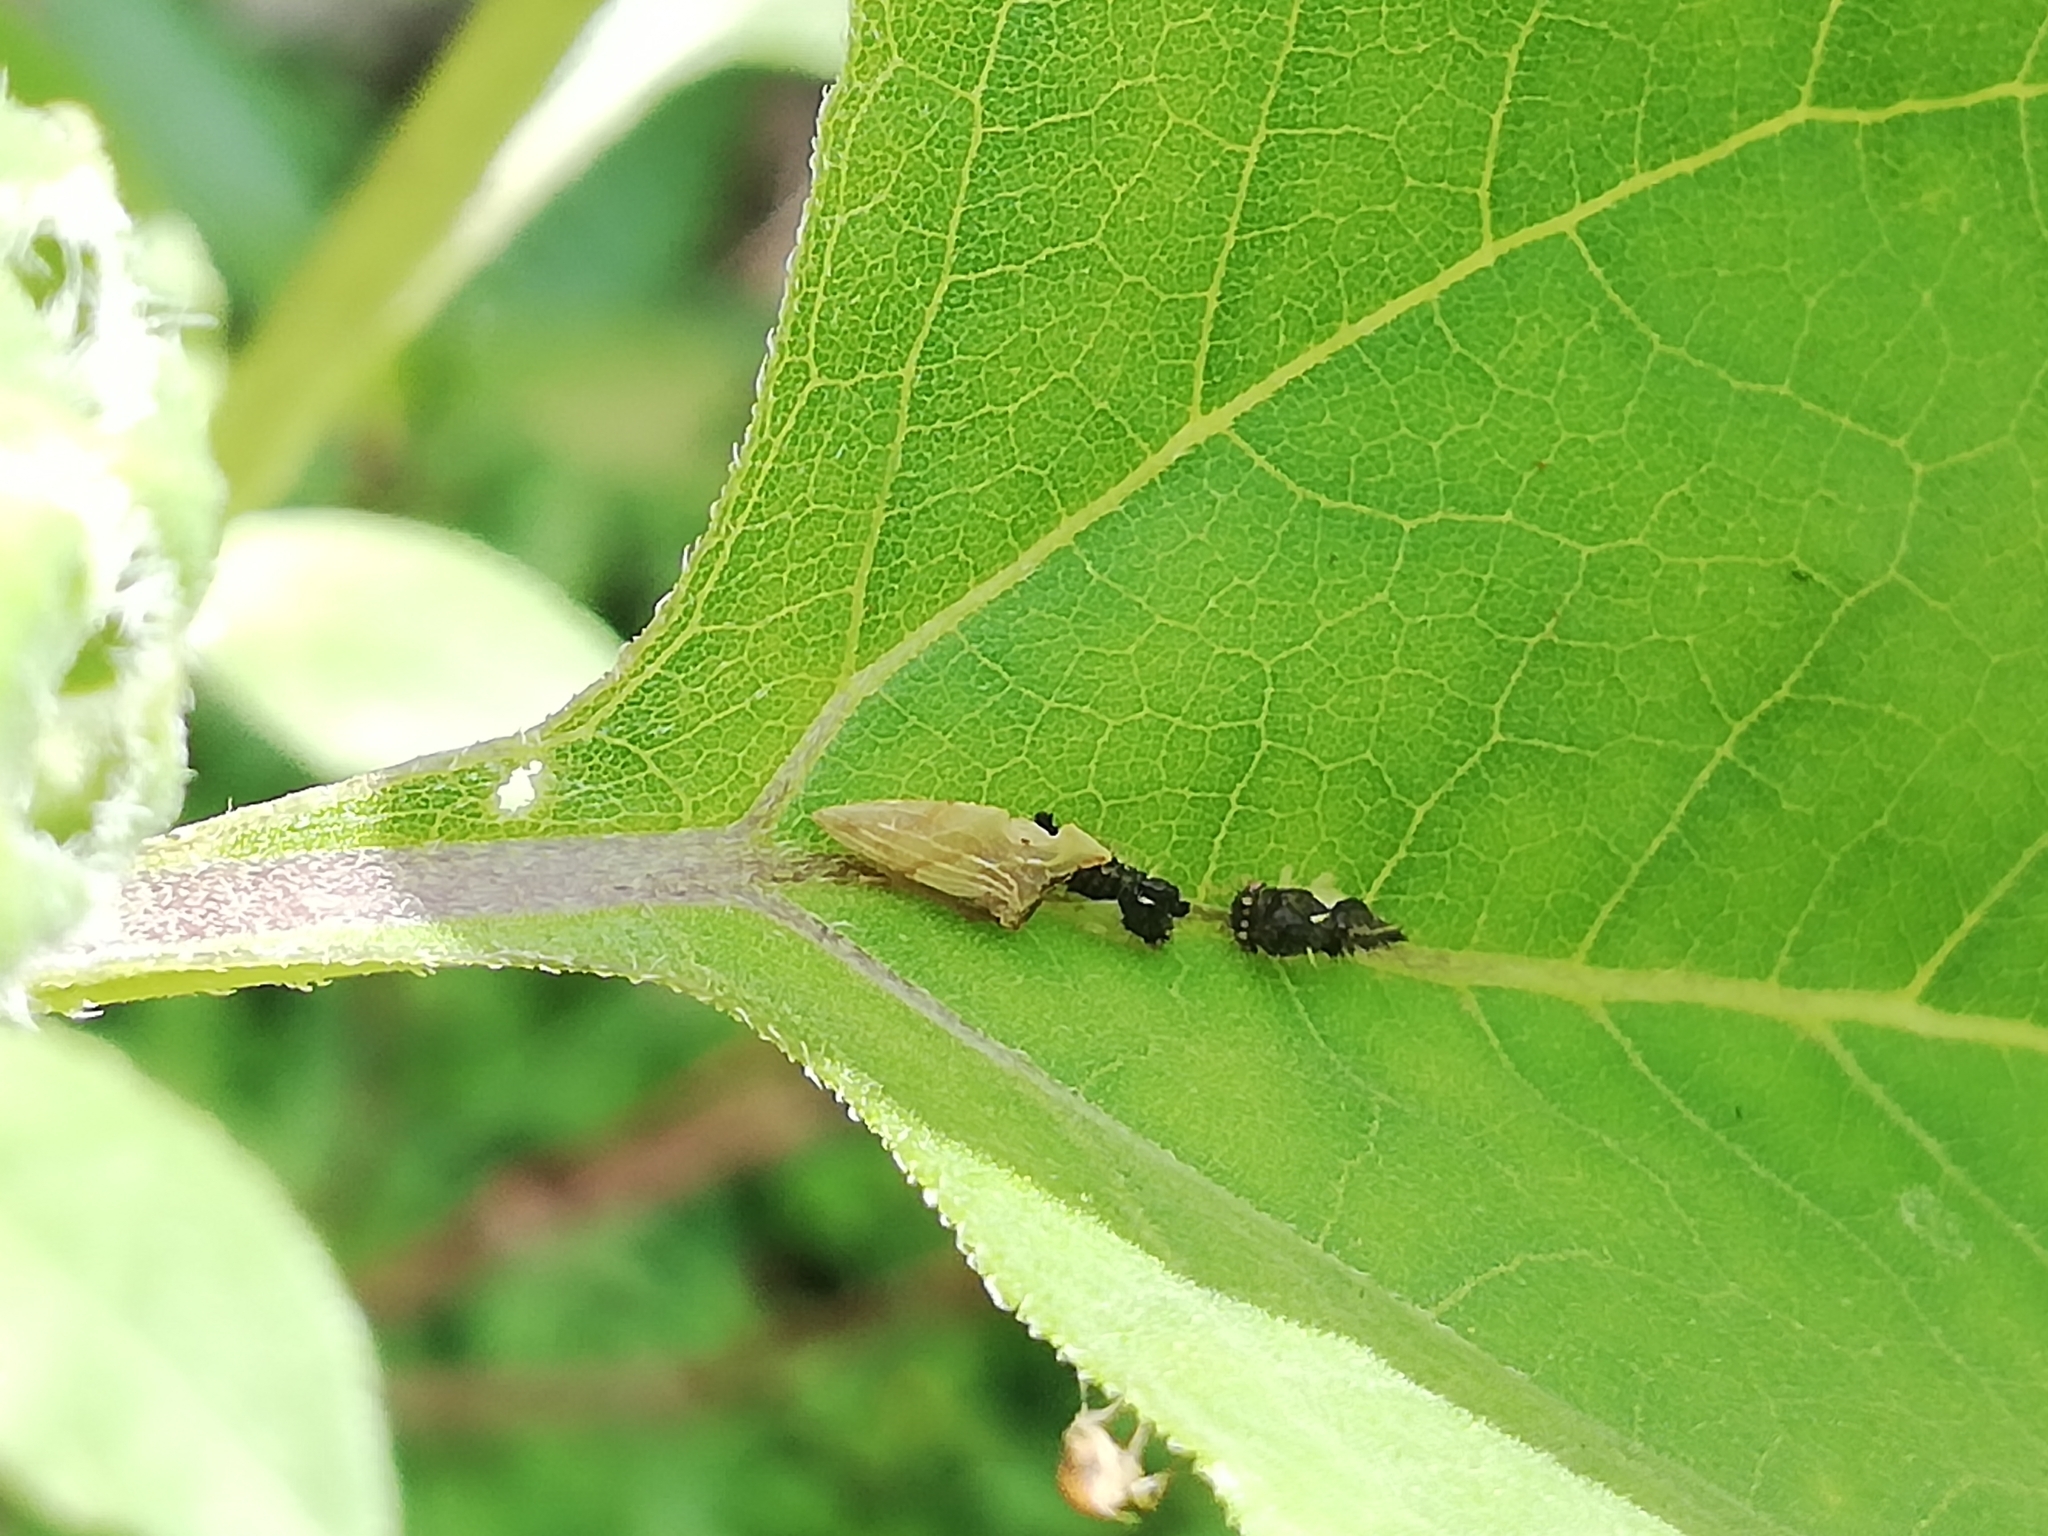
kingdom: Animalia
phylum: Arthropoda
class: Insecta
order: Hemiptera
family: Membracidae
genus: Entylia
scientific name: Entylia carinata
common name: Keeled treehopper
